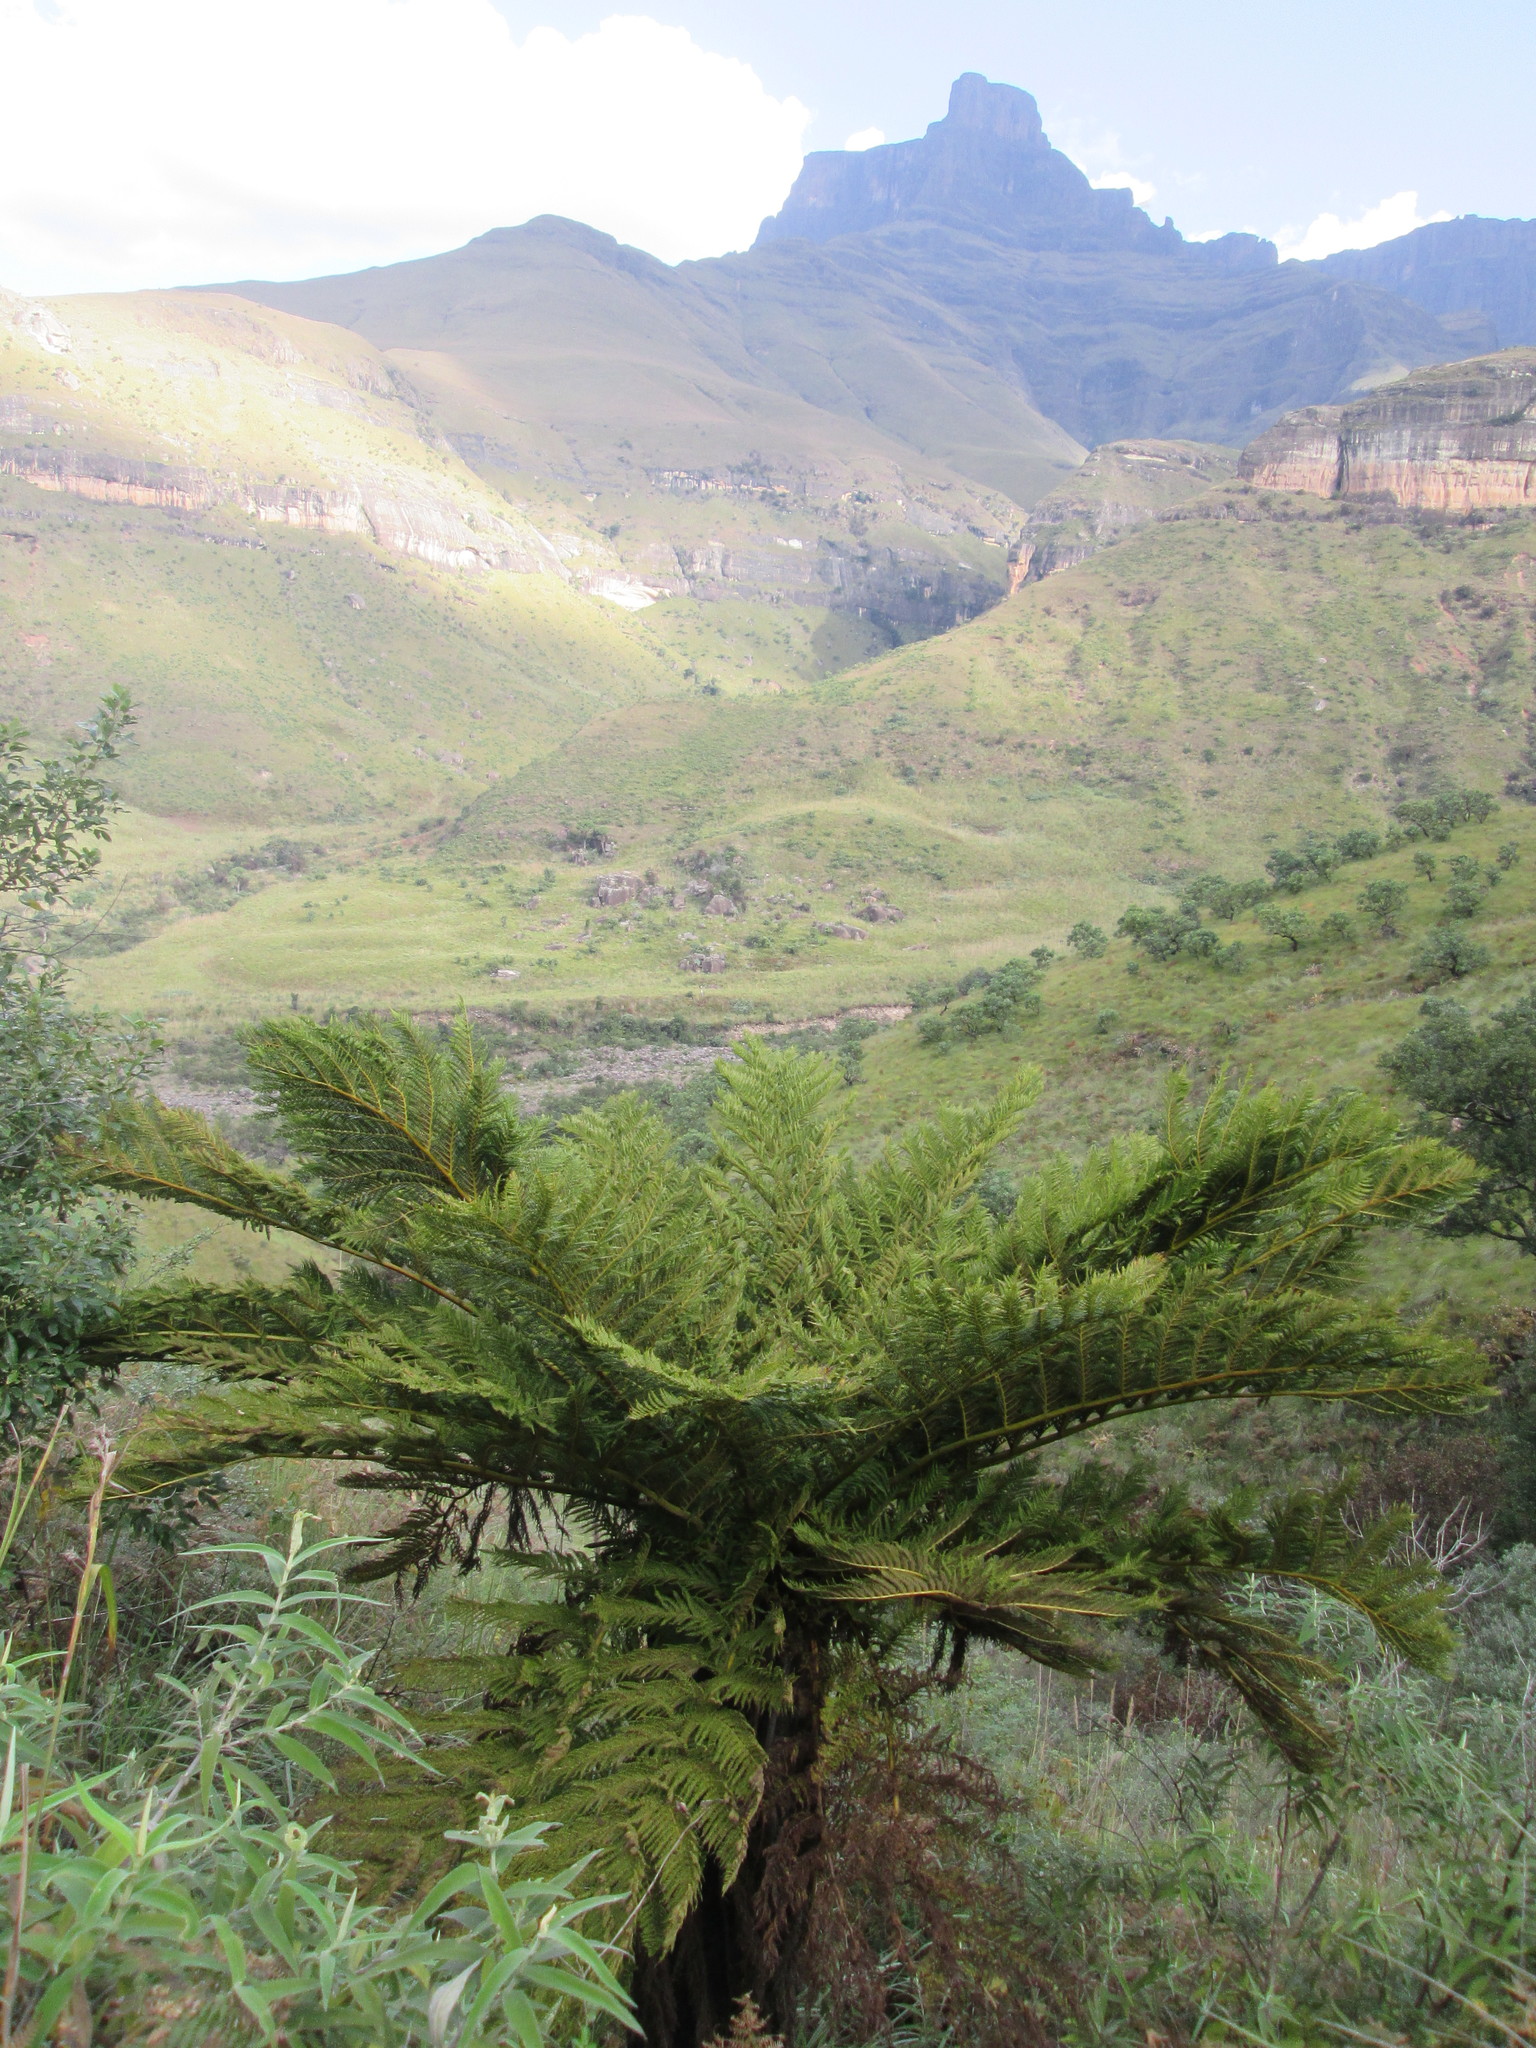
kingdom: Plantae
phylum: Tracheophyta
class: Polypodiopsida
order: Cyatheales
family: Cyatheaceae
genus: Alsophila
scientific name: Alsophila dregei
